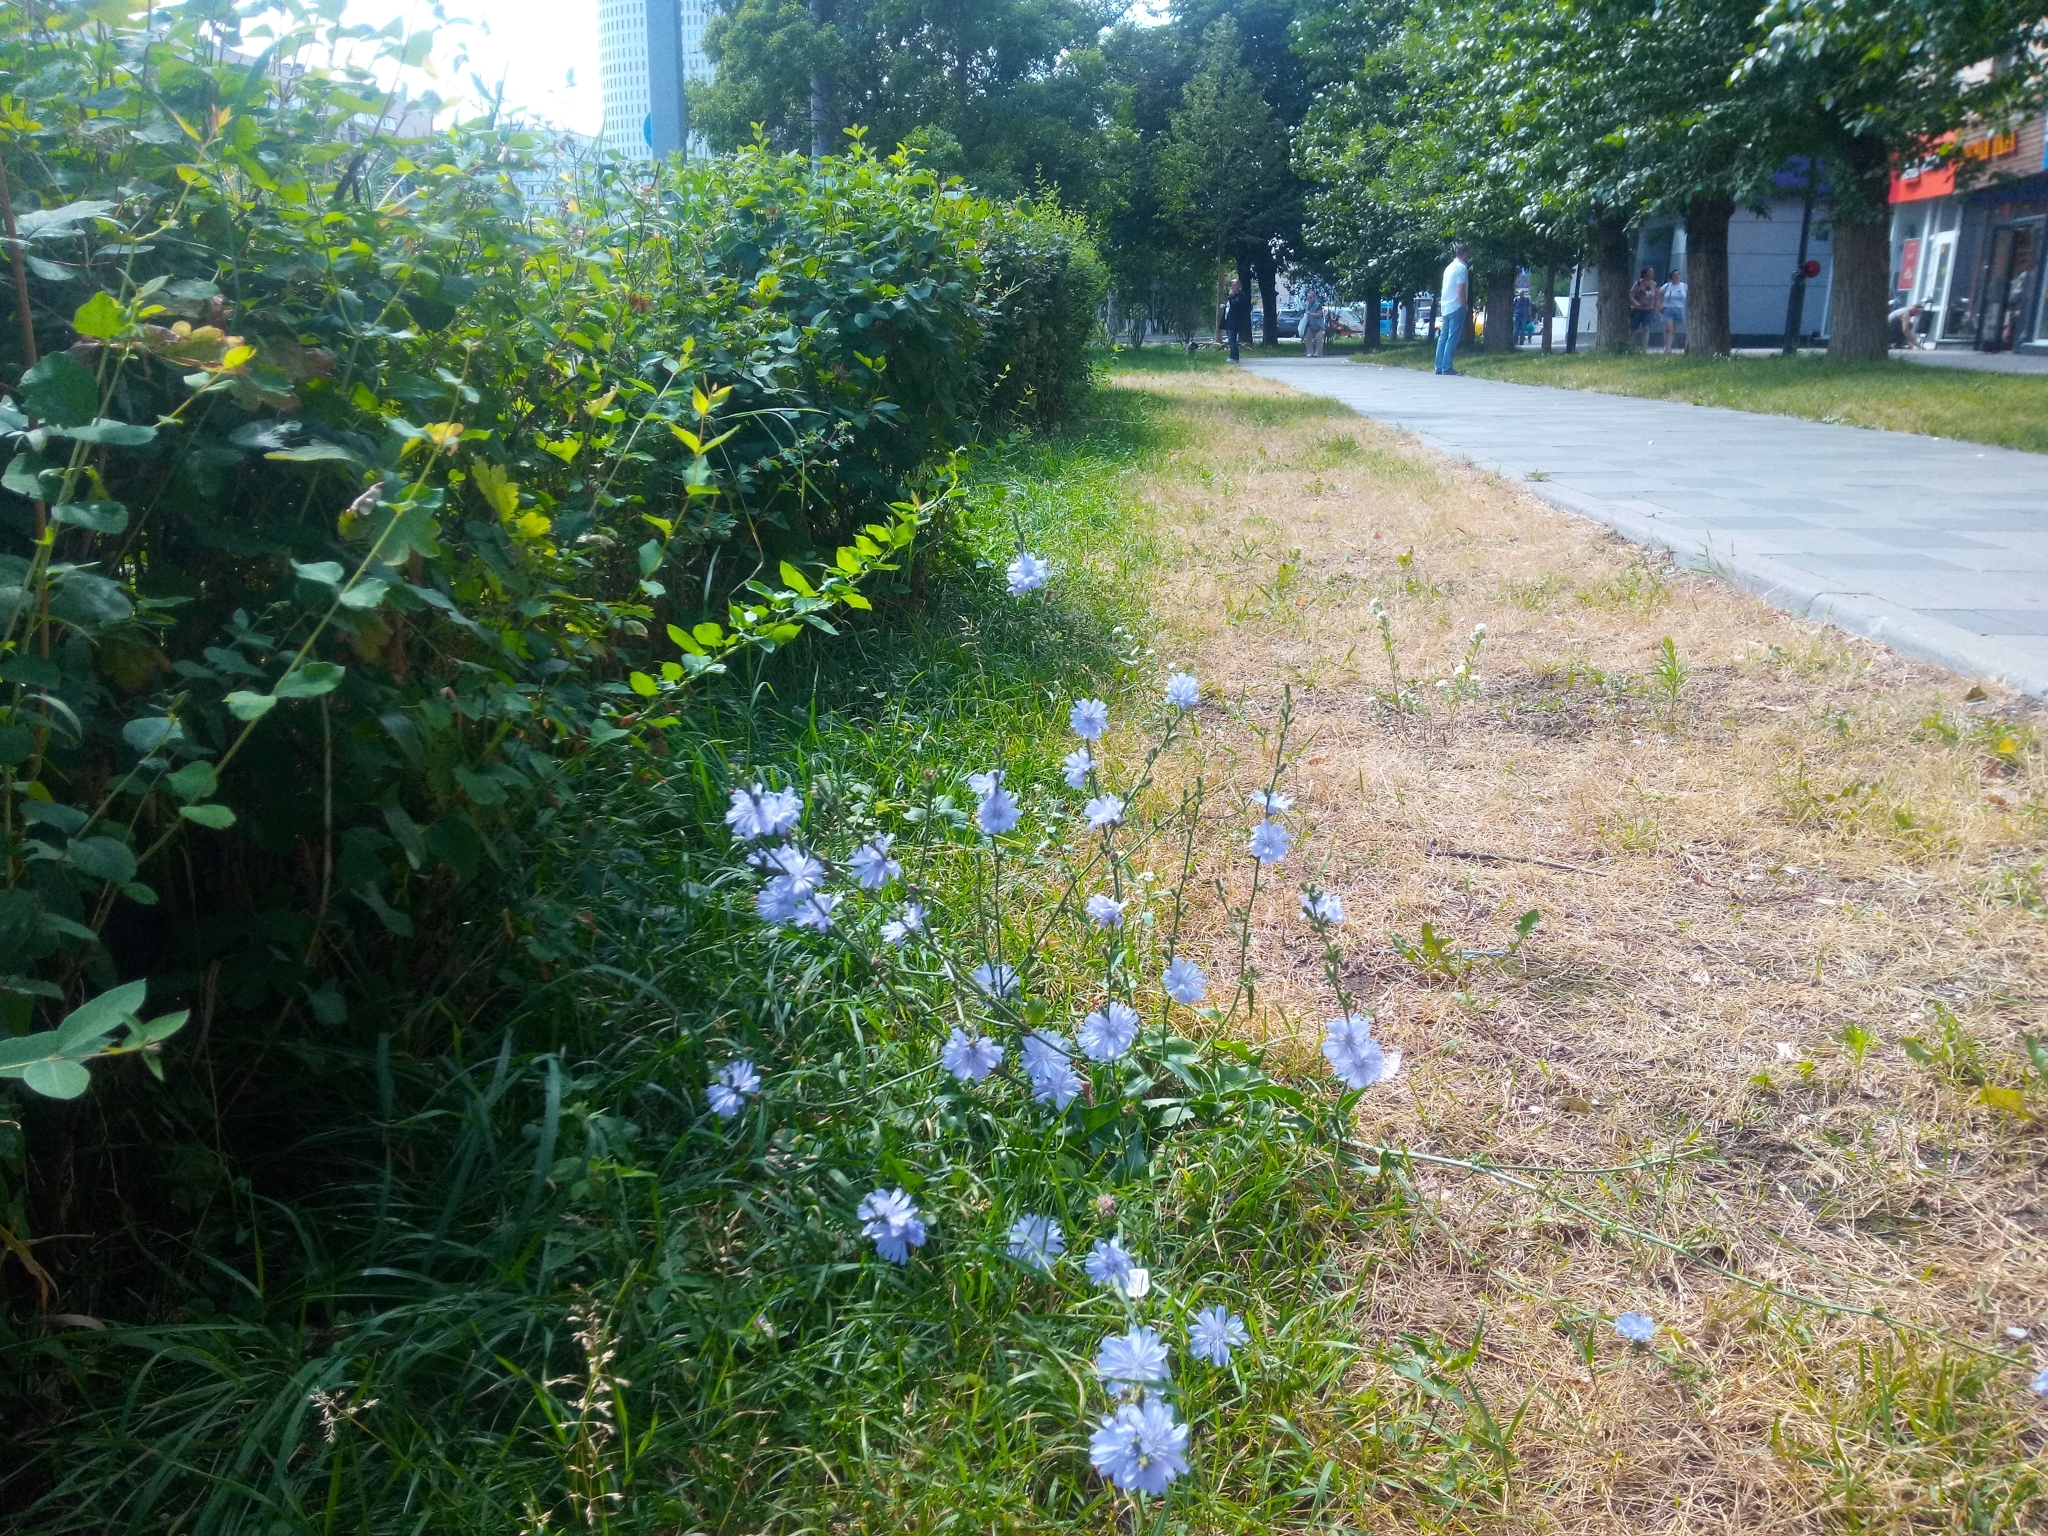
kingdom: Plantae
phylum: Tracheophyta
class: Magnoliopsida
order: Asterales
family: Asteraceae
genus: Cichorium
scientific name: Cichorium intybus
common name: Chicory
